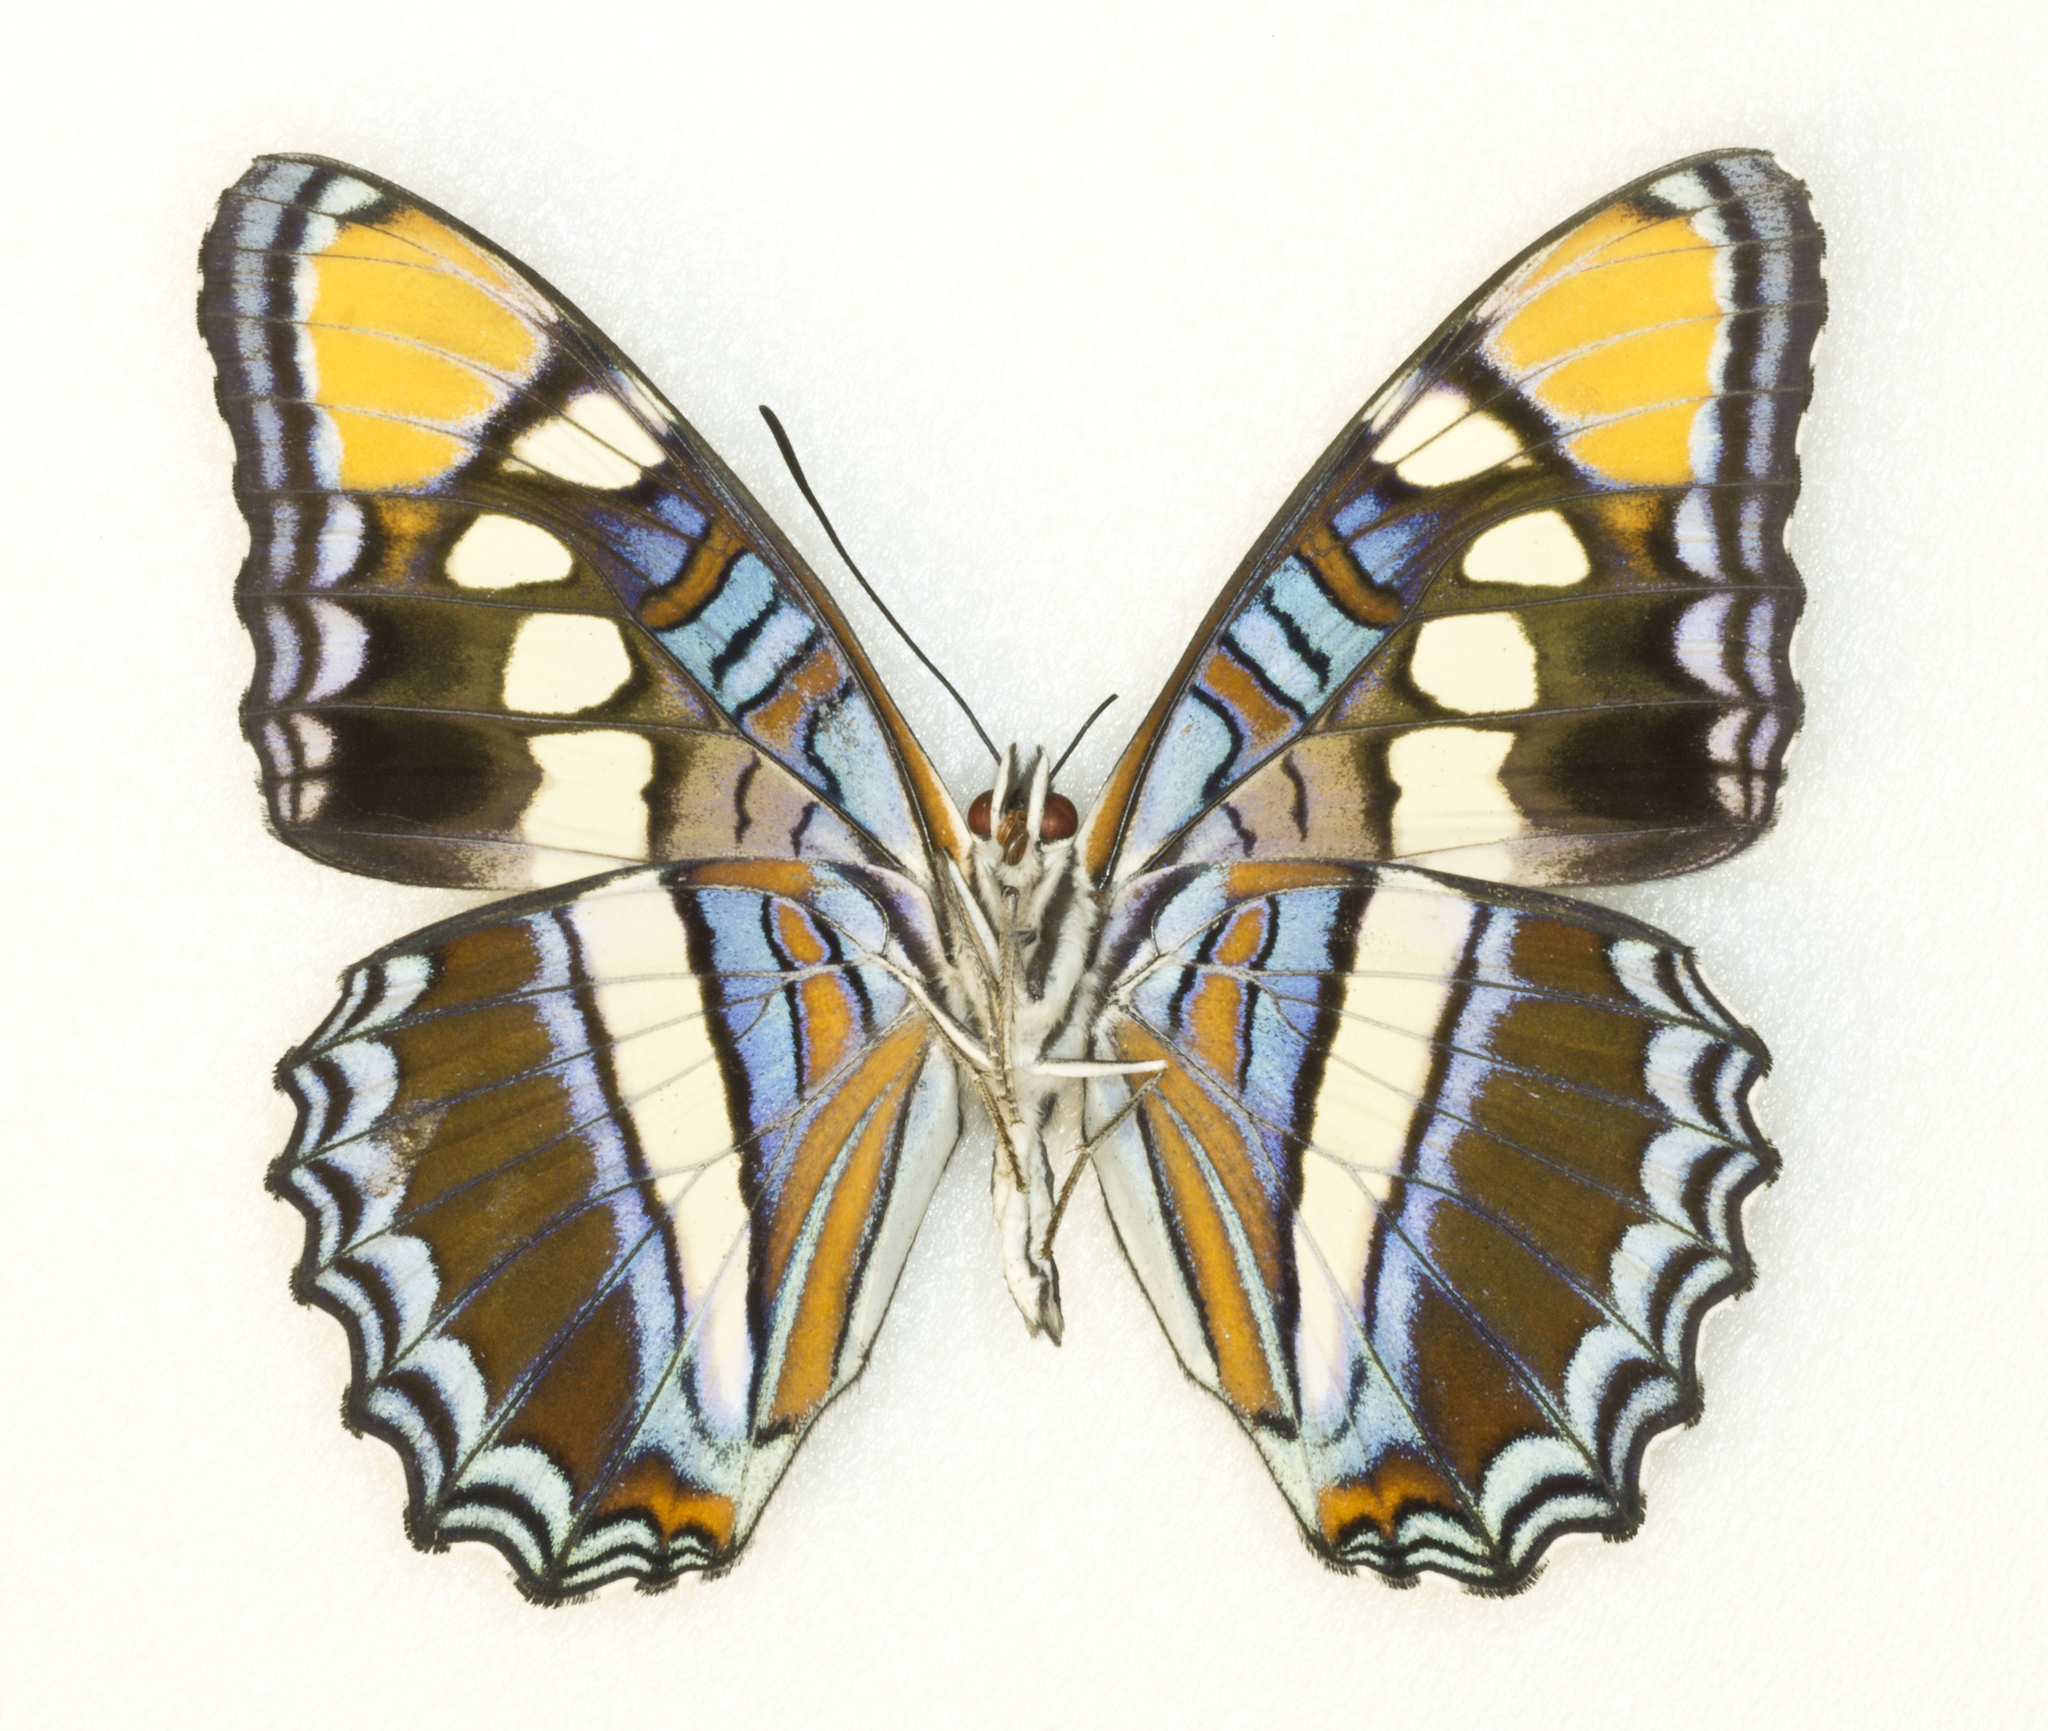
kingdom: Animalia
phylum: Arthropoda
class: Insecta
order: Lepidoptera
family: Nymphalidae
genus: Limenitis
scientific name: Limenitis bredowii
